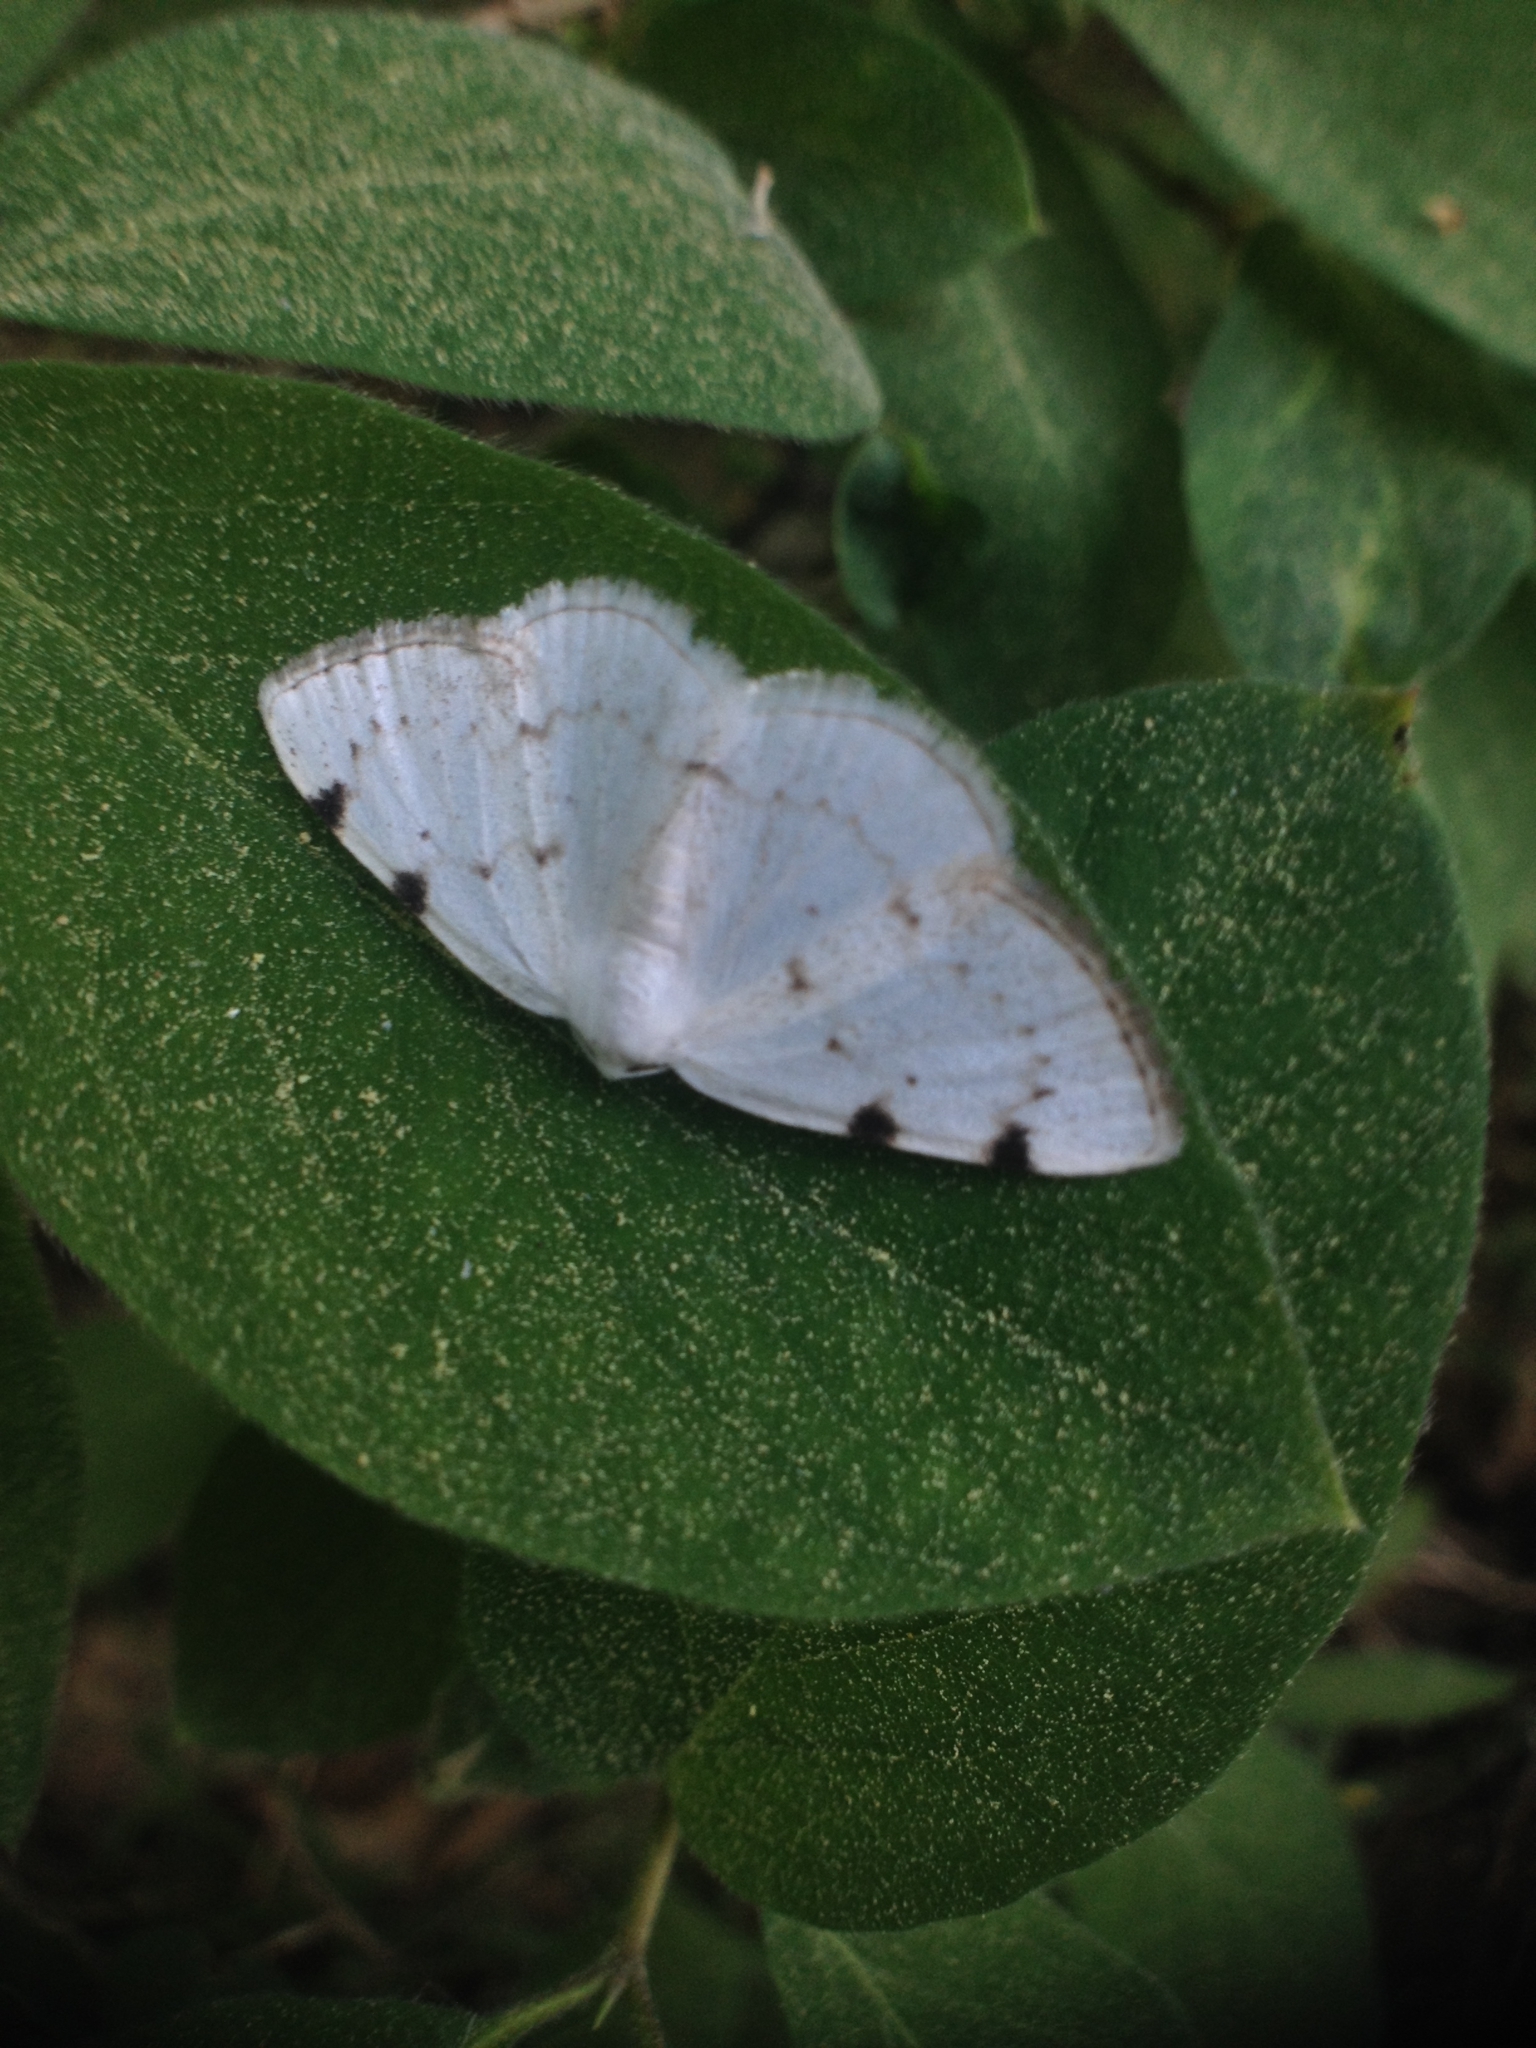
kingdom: Animalia
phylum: Arthropoda
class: Insecta
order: Lepidoptera
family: Geometridae
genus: Lomographa
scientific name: Lomographa bimaculata
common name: White-pinion spotted
